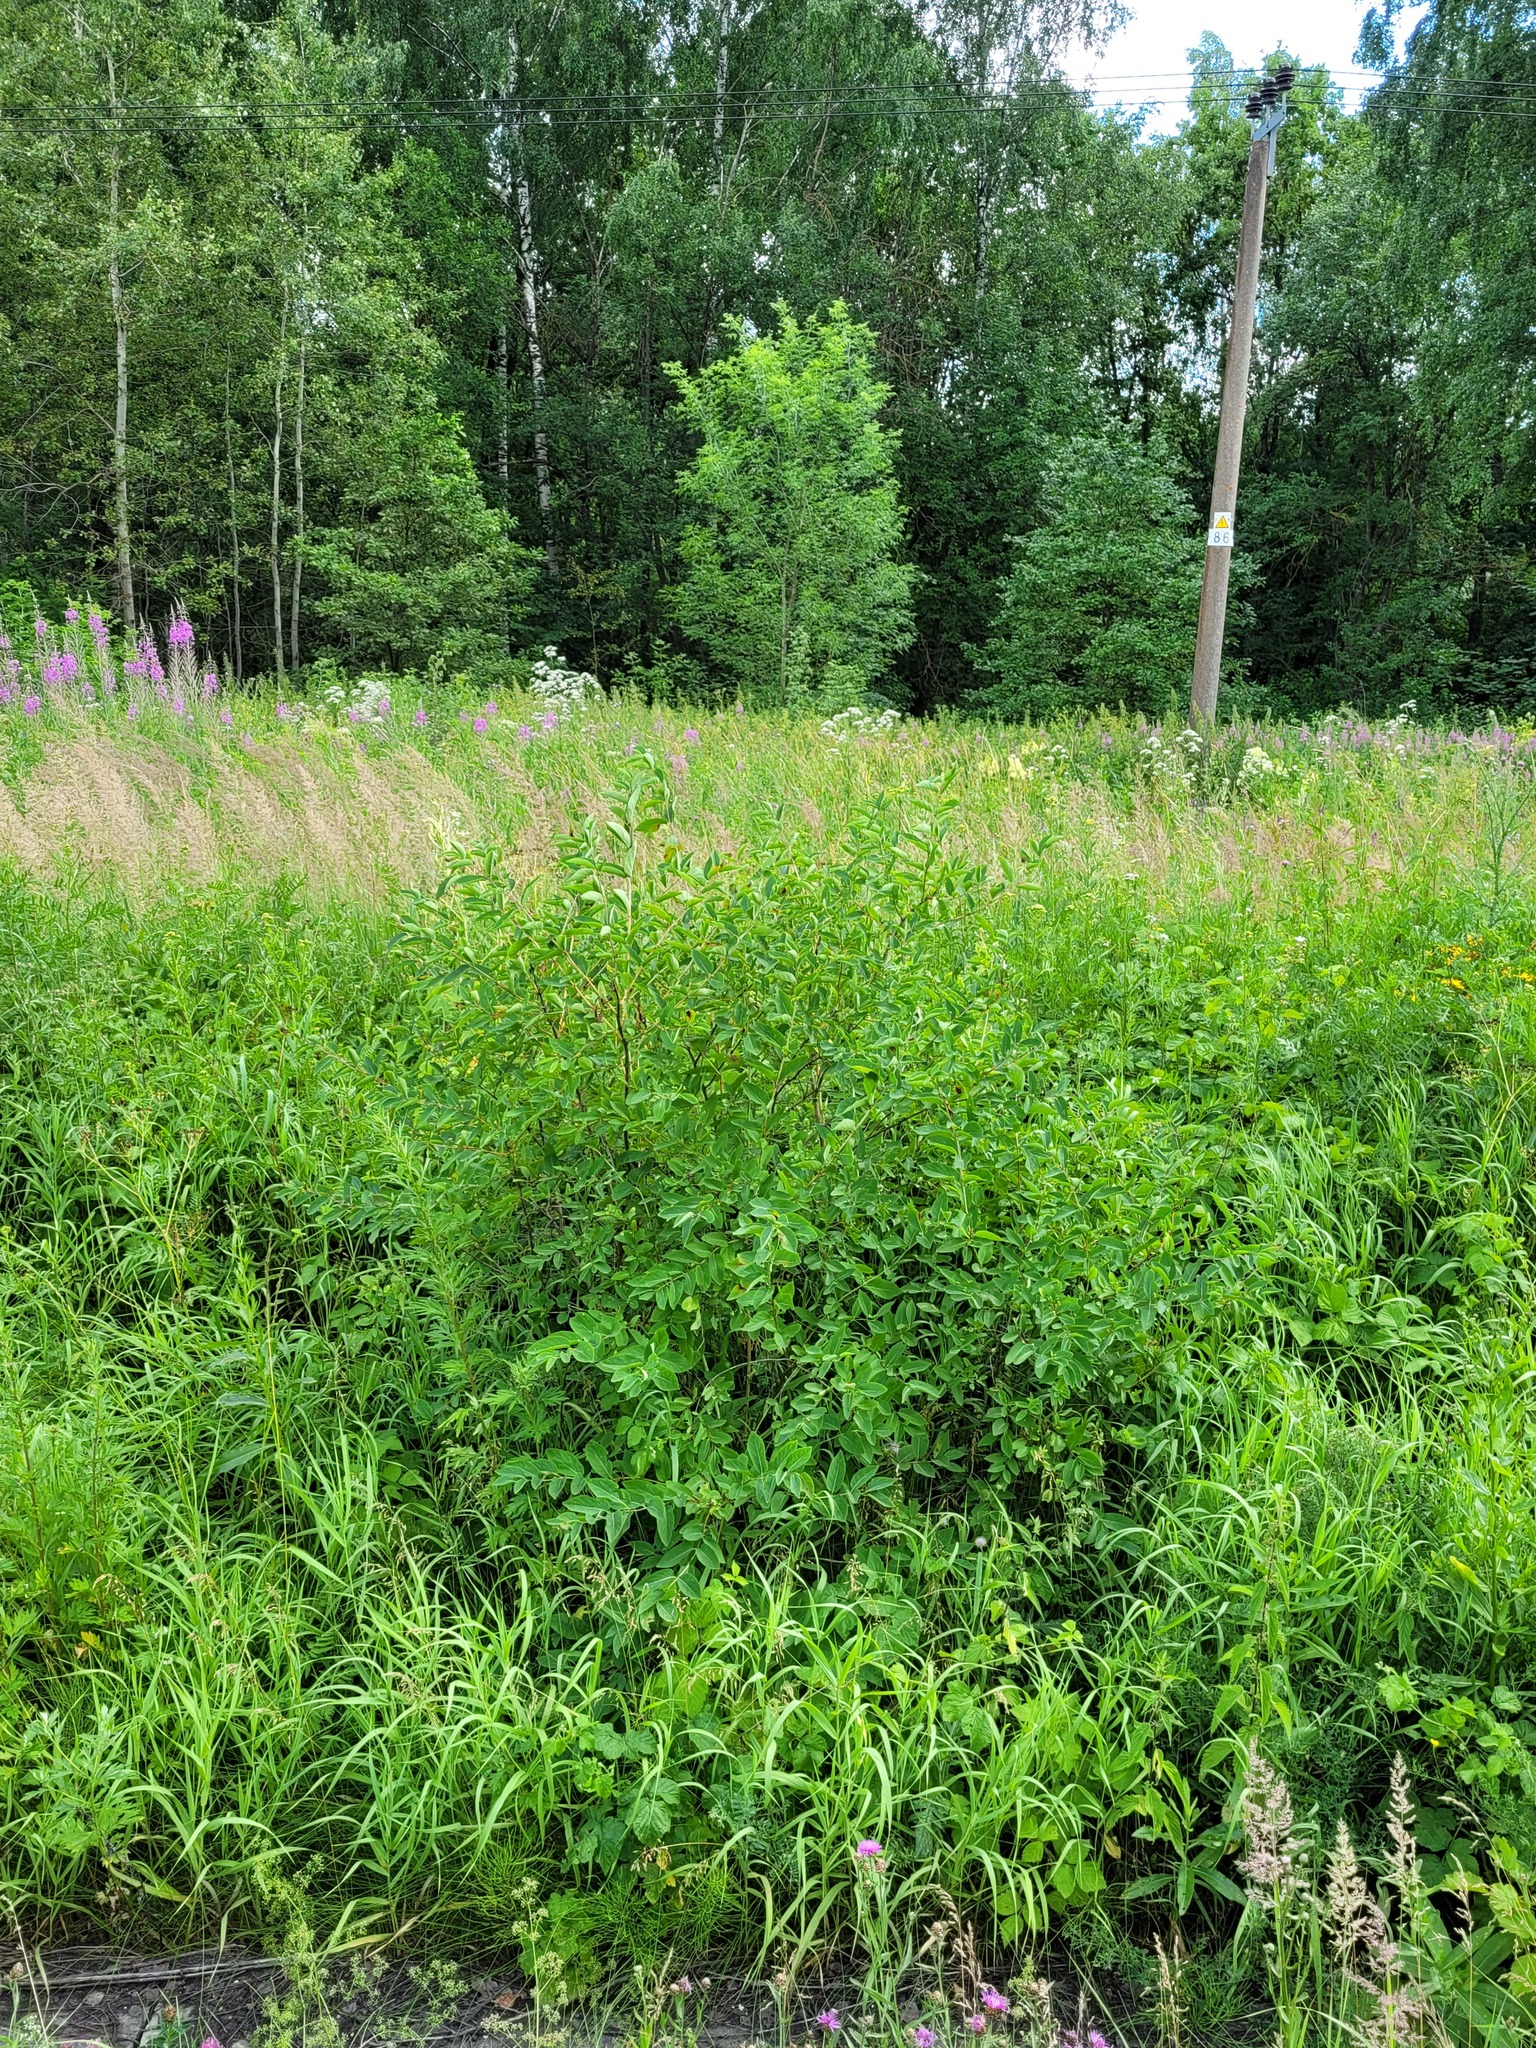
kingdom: Plantae
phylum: Tracheophyta
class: Magnoliopsida
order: Dipsacales
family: Caprifoliaceae
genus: Lonicera
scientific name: Lonicera tatarica
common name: Tatarian honeysuckle
